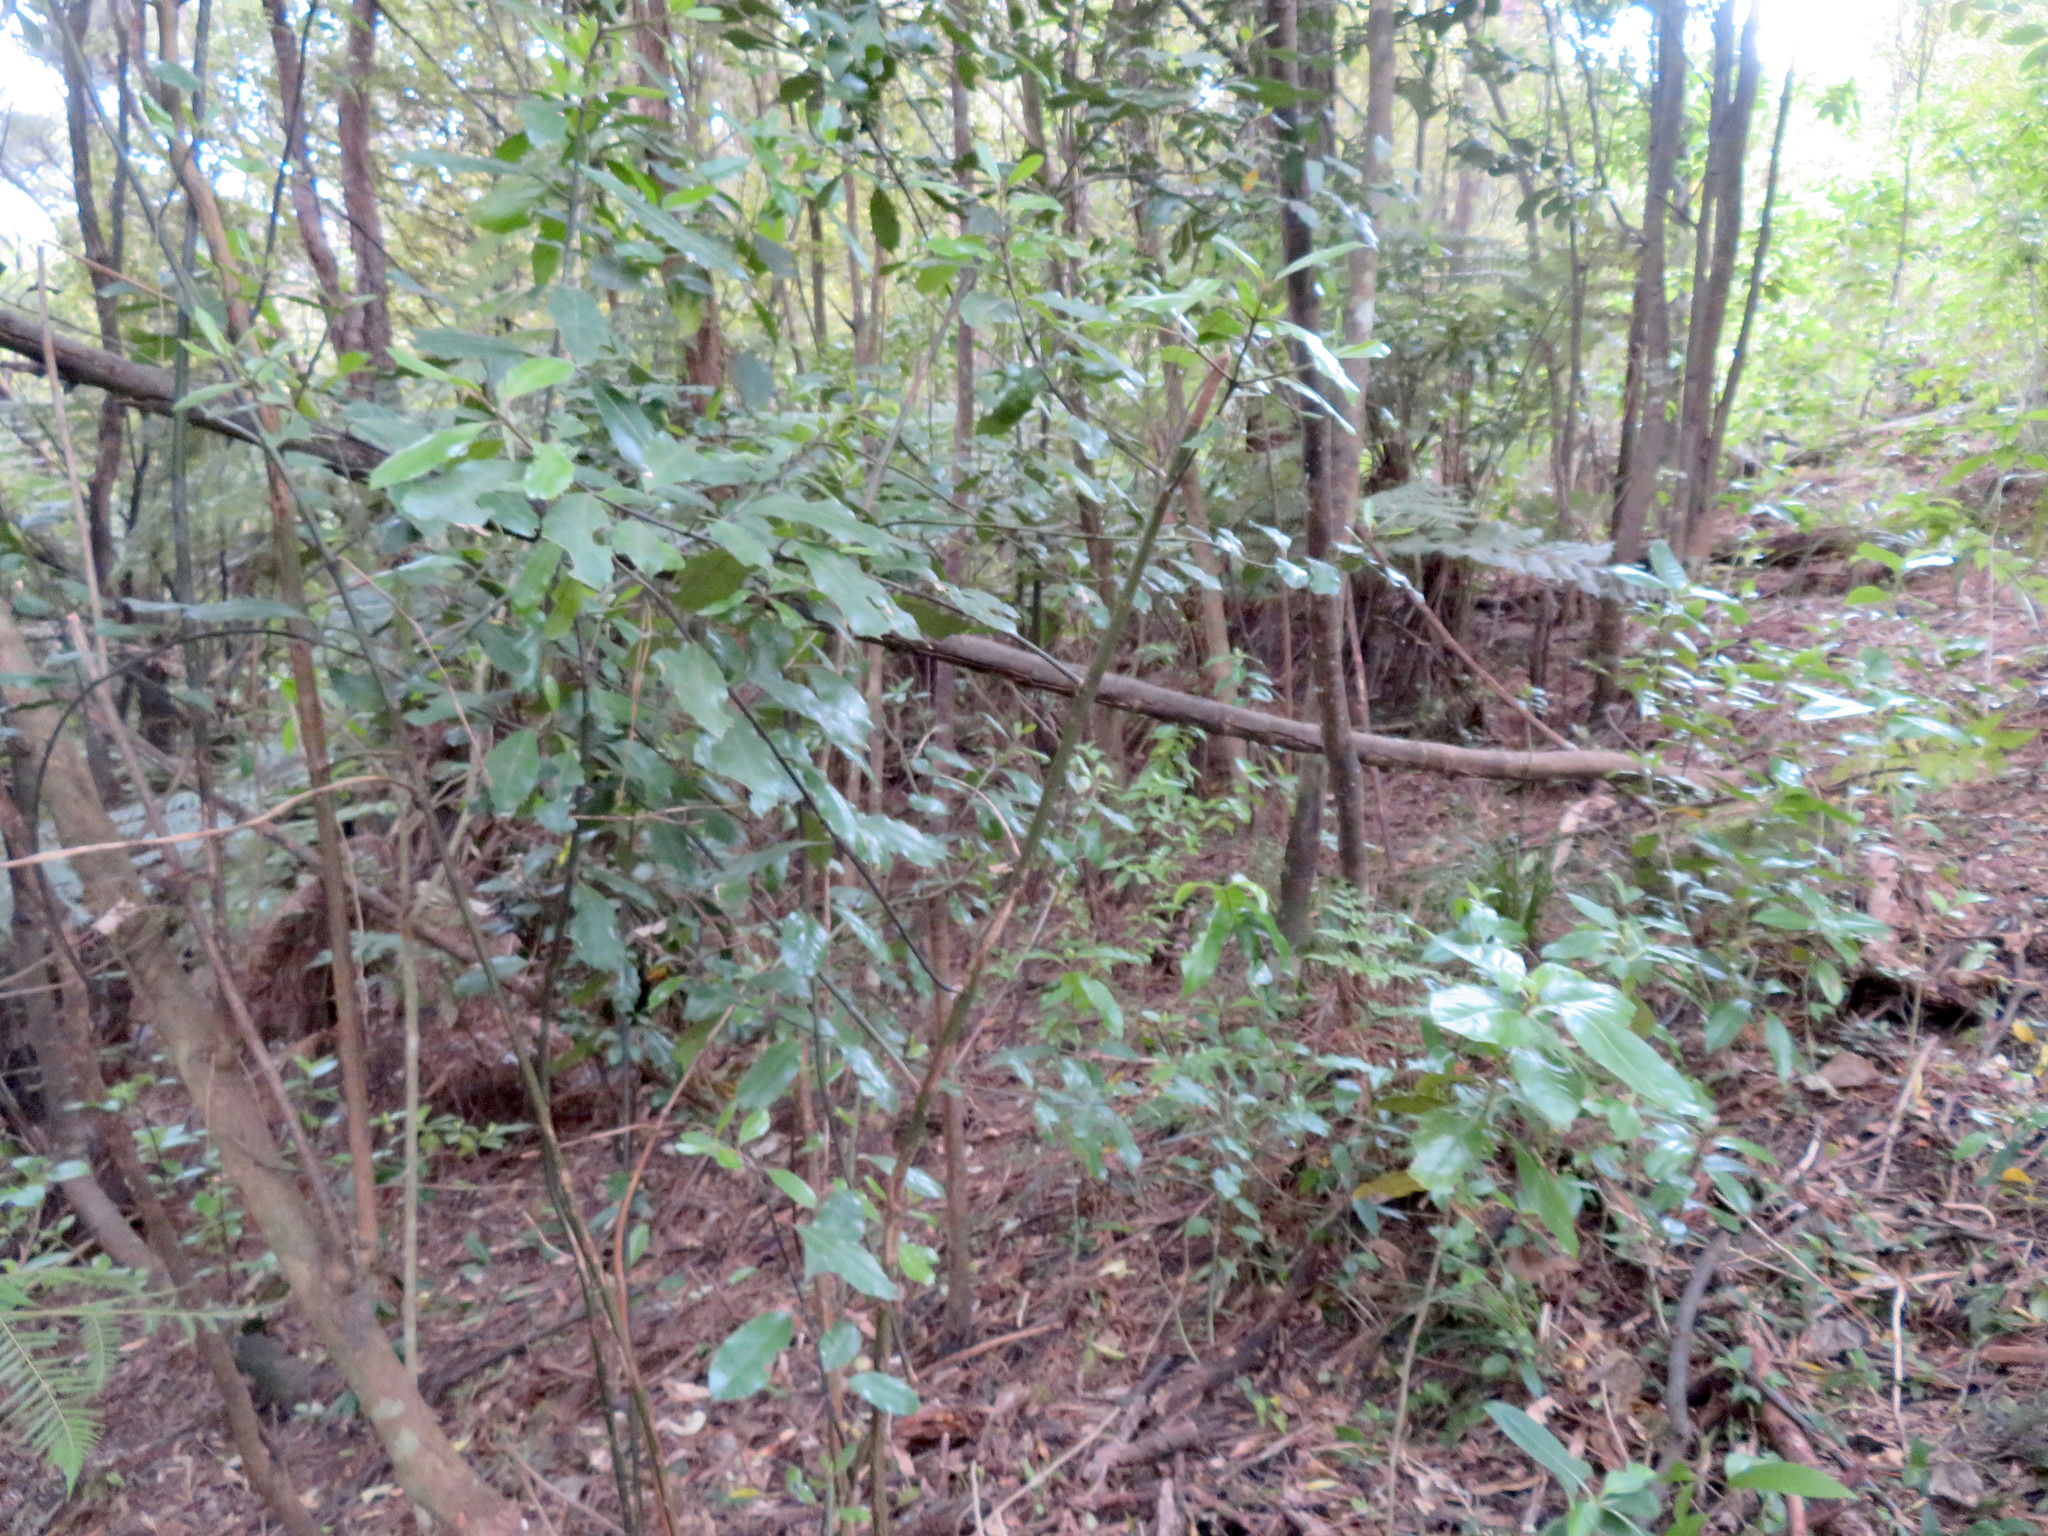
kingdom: Plantae
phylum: Tracheophyta
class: Magnoliopsida
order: Laurales
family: Monimiaceae
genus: Hedycarya
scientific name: Hedycarya arborea
